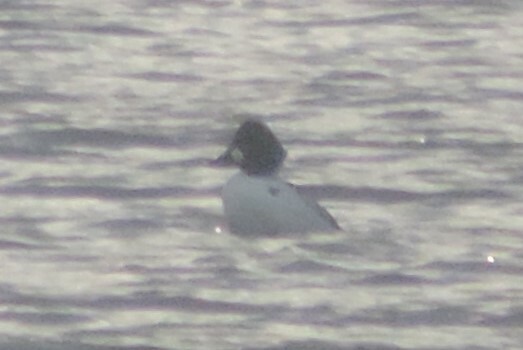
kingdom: Animalia
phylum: Chordata
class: Aves
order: Anseriformes
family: Anatidae
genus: Bucephala
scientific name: Bucephala clangula
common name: Common goldeneye
